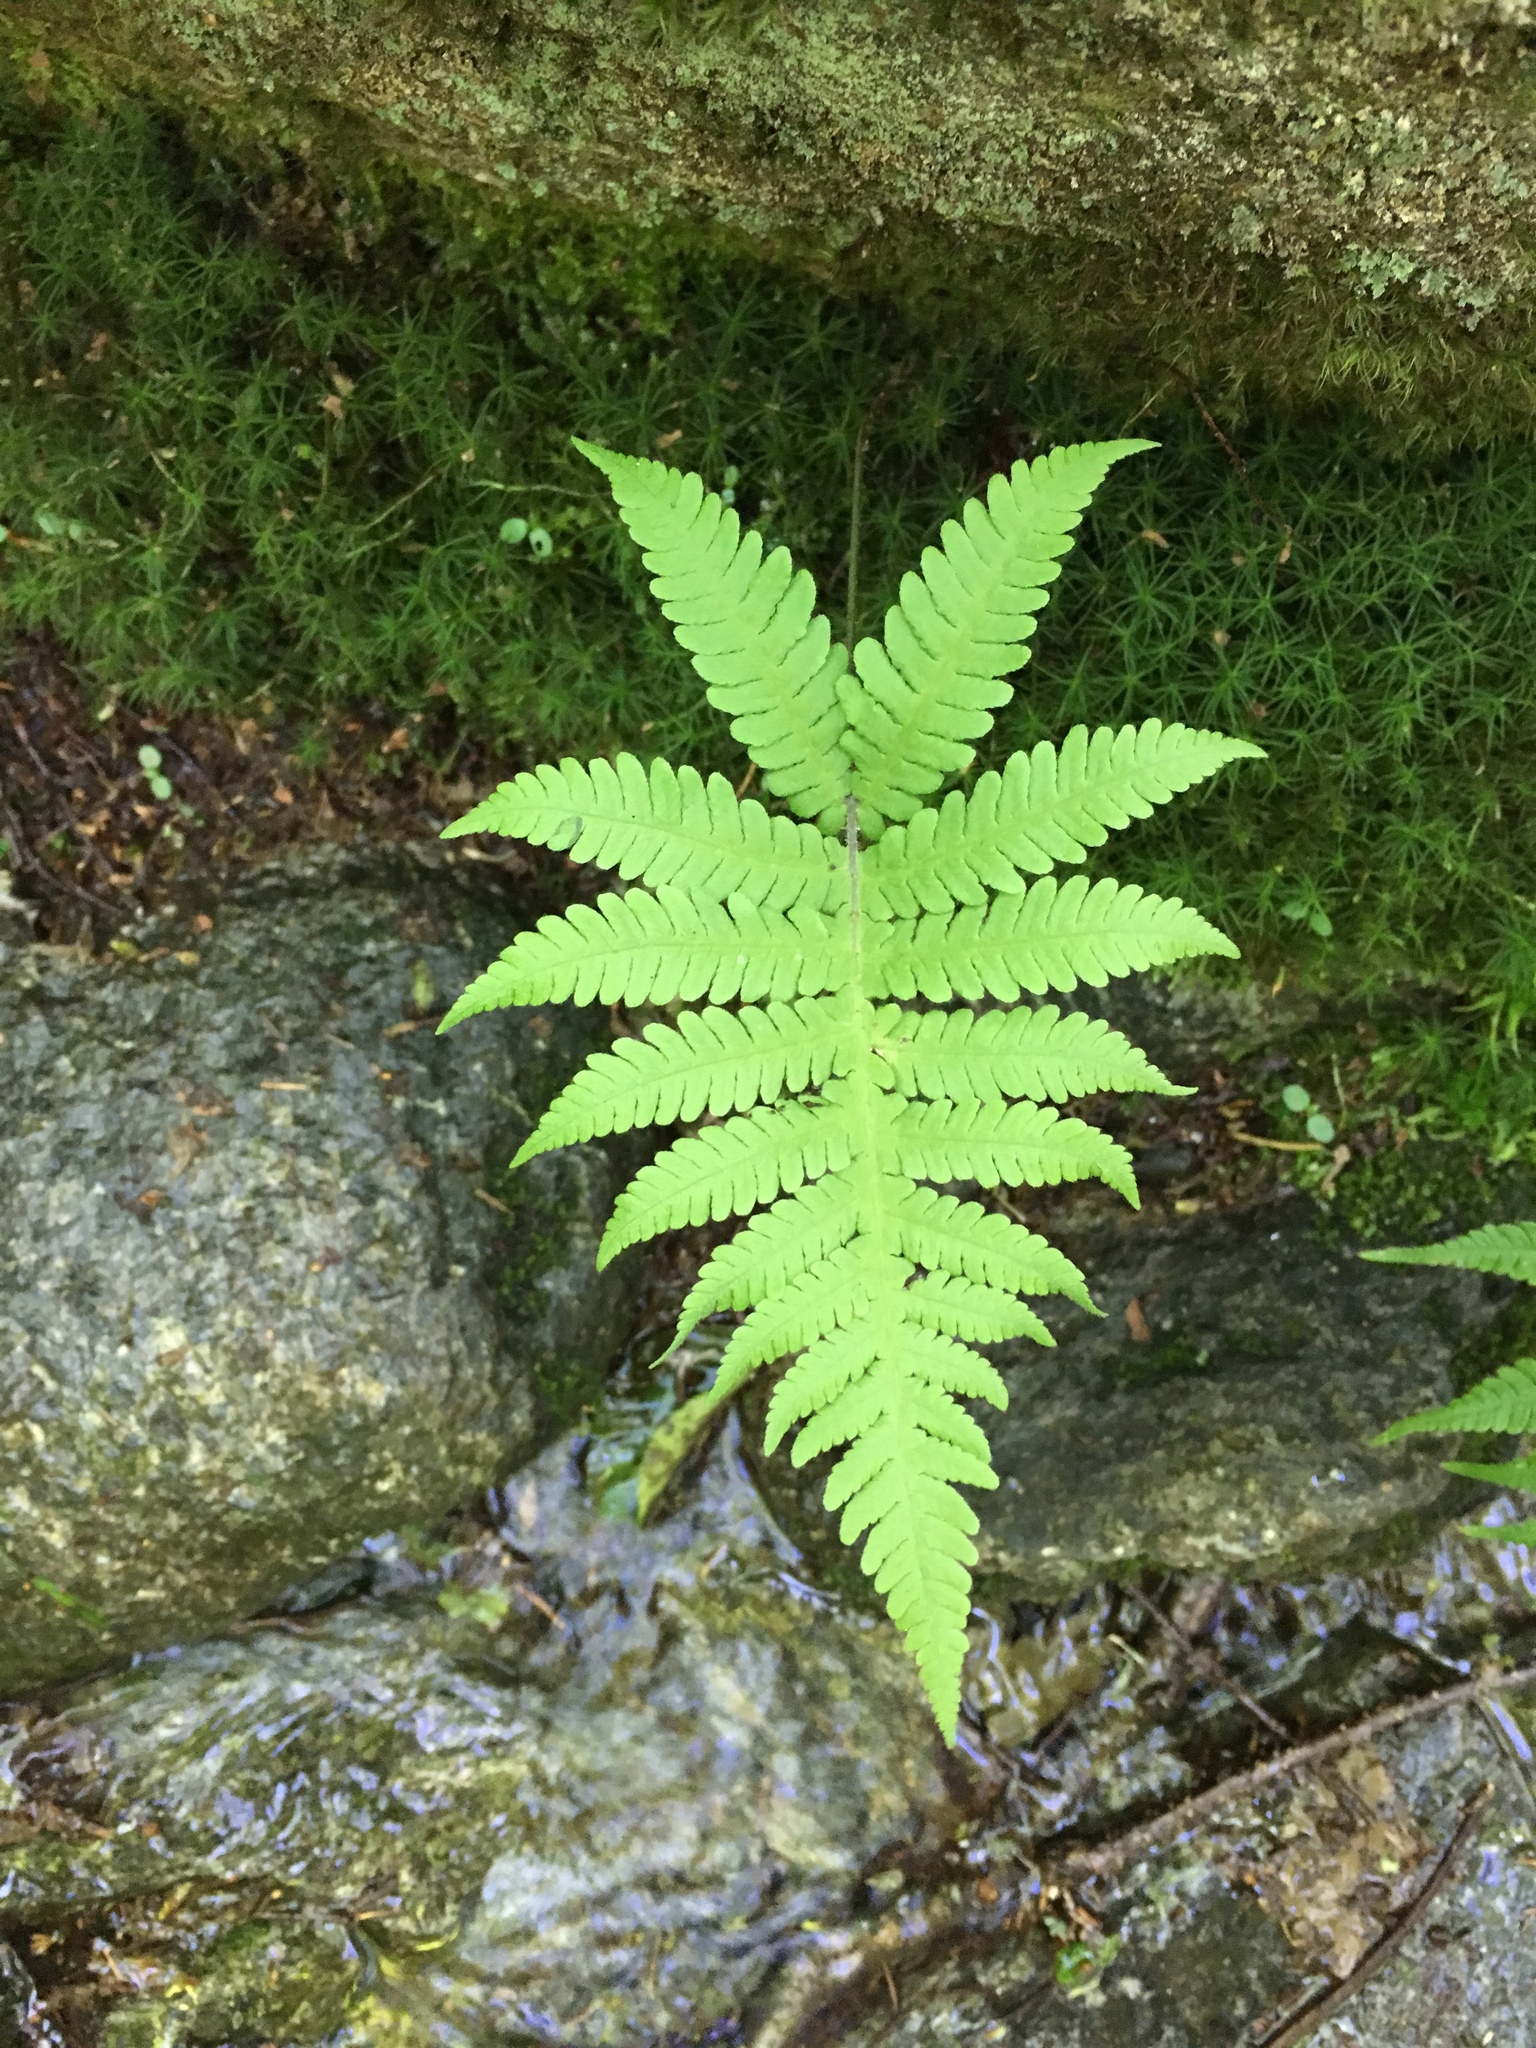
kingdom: Plantae
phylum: Tracheophyta
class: Polypodiopsida
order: Polypodiales
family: Thelypteridaceae
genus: Phegopteris
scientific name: Phegopteris connectilis
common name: Beech fern
